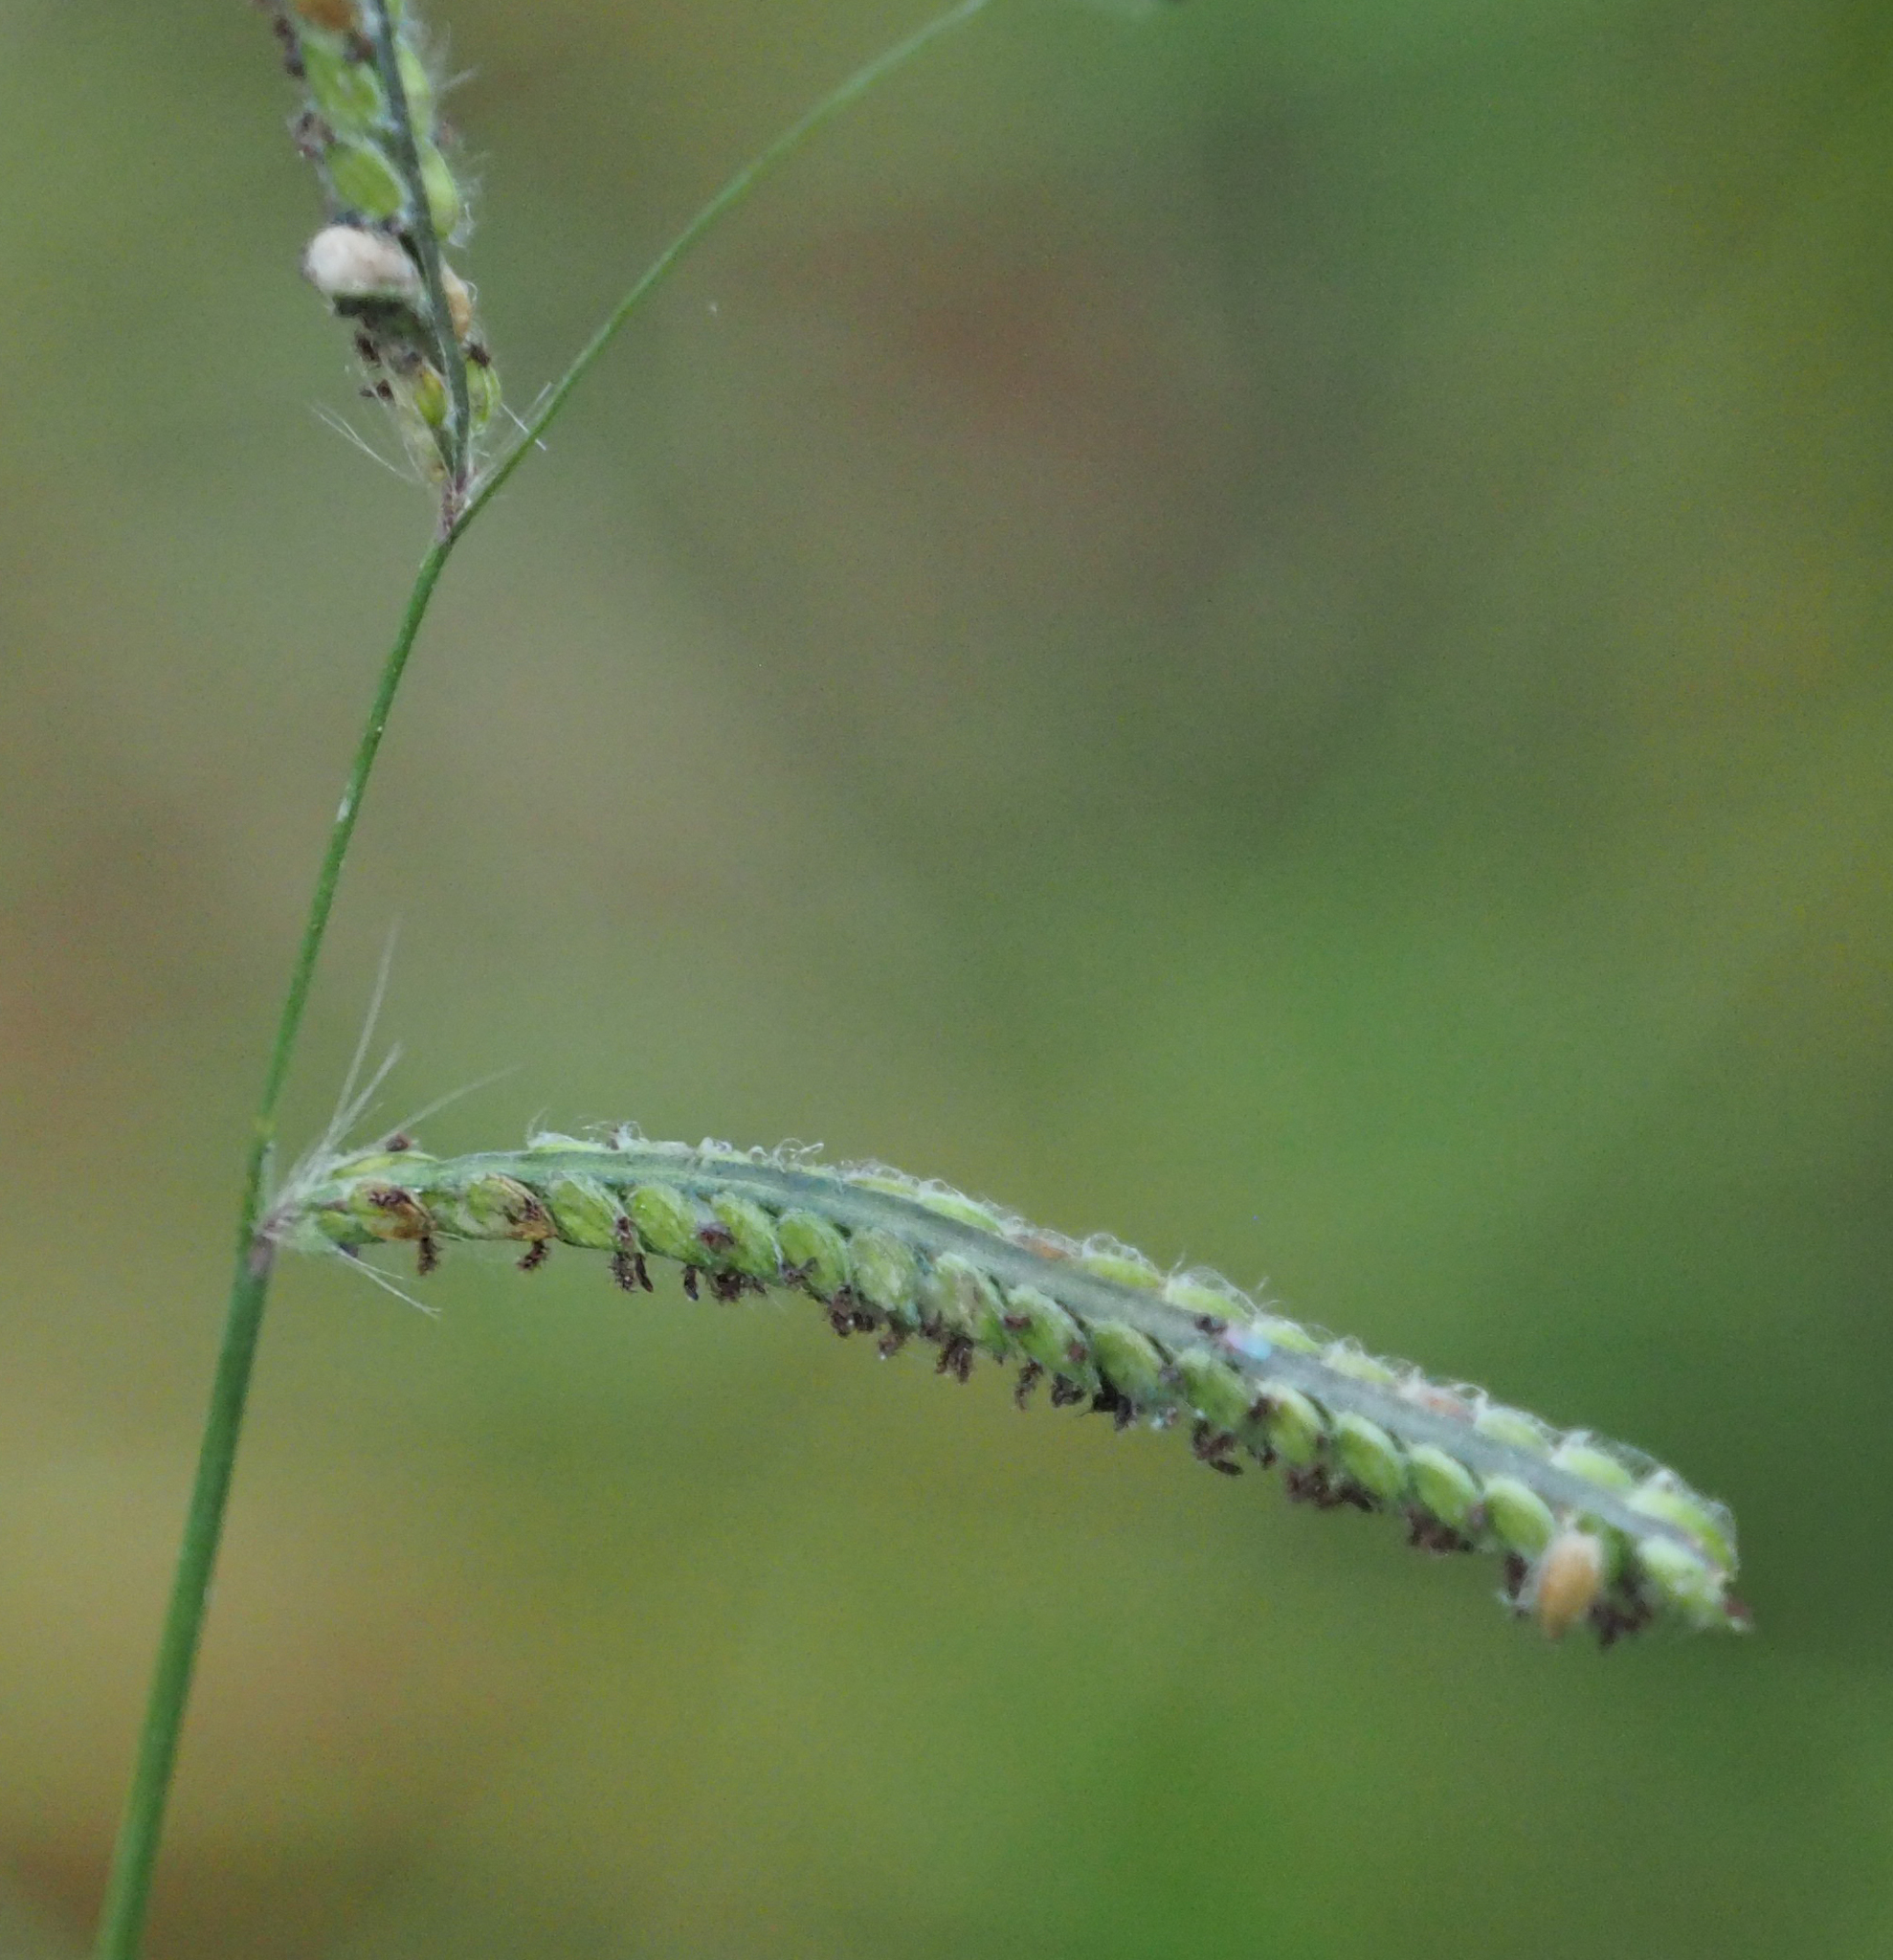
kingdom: Plantae
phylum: Tracheophyta
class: Liliopsida
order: Poales
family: Poaceae
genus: Paspalum
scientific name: Paspalum dilatatum
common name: Dallisgrass
